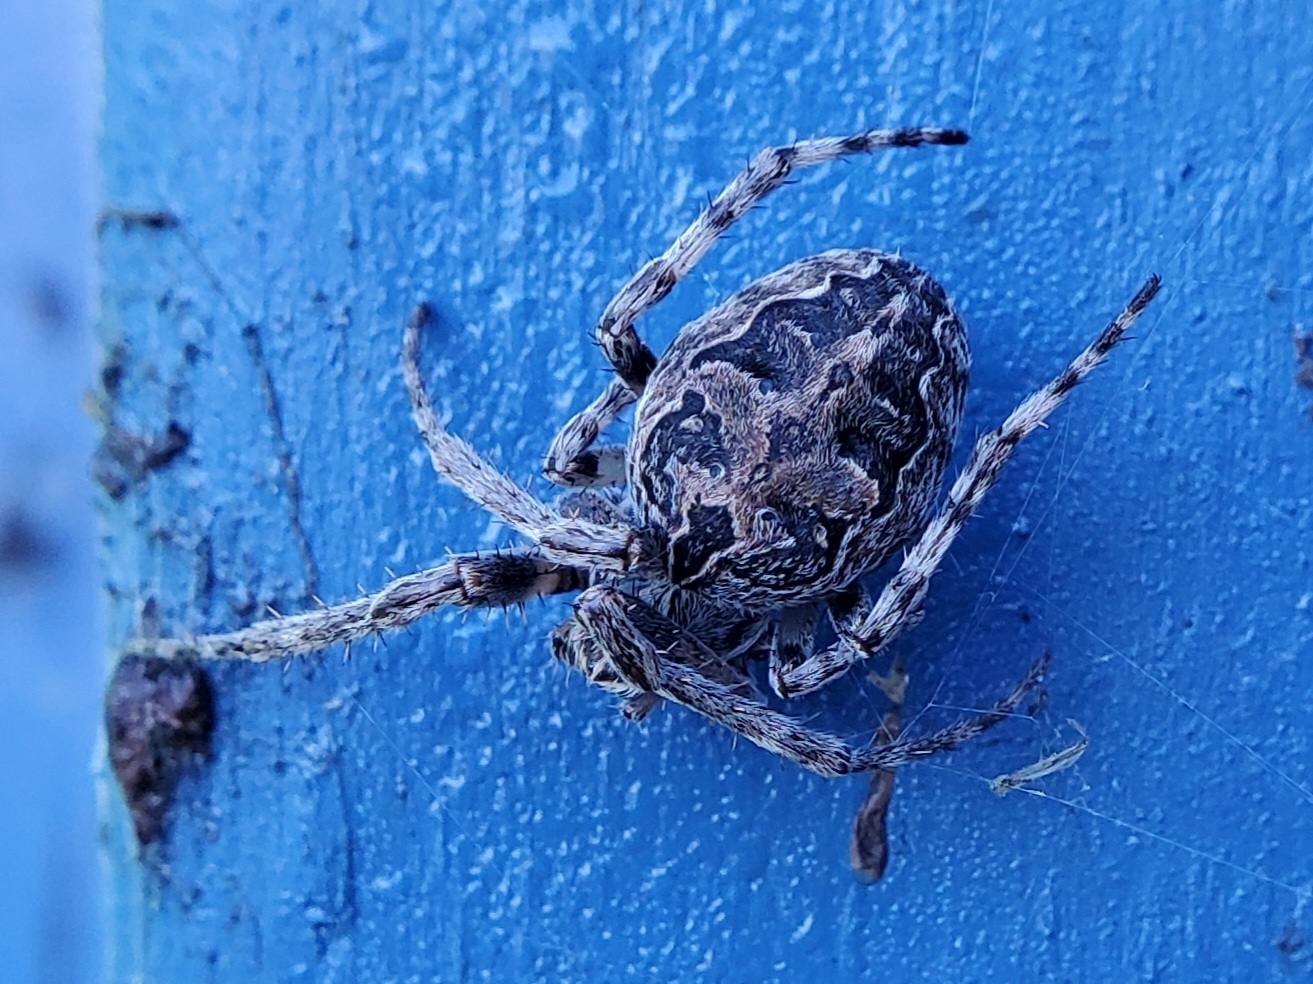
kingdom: Animalia
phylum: Arthropoda
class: Arachnida
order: Araneae
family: Araneidae
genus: Larinioides
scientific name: Larinioides sclopetarius
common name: Bridge orbweaver
